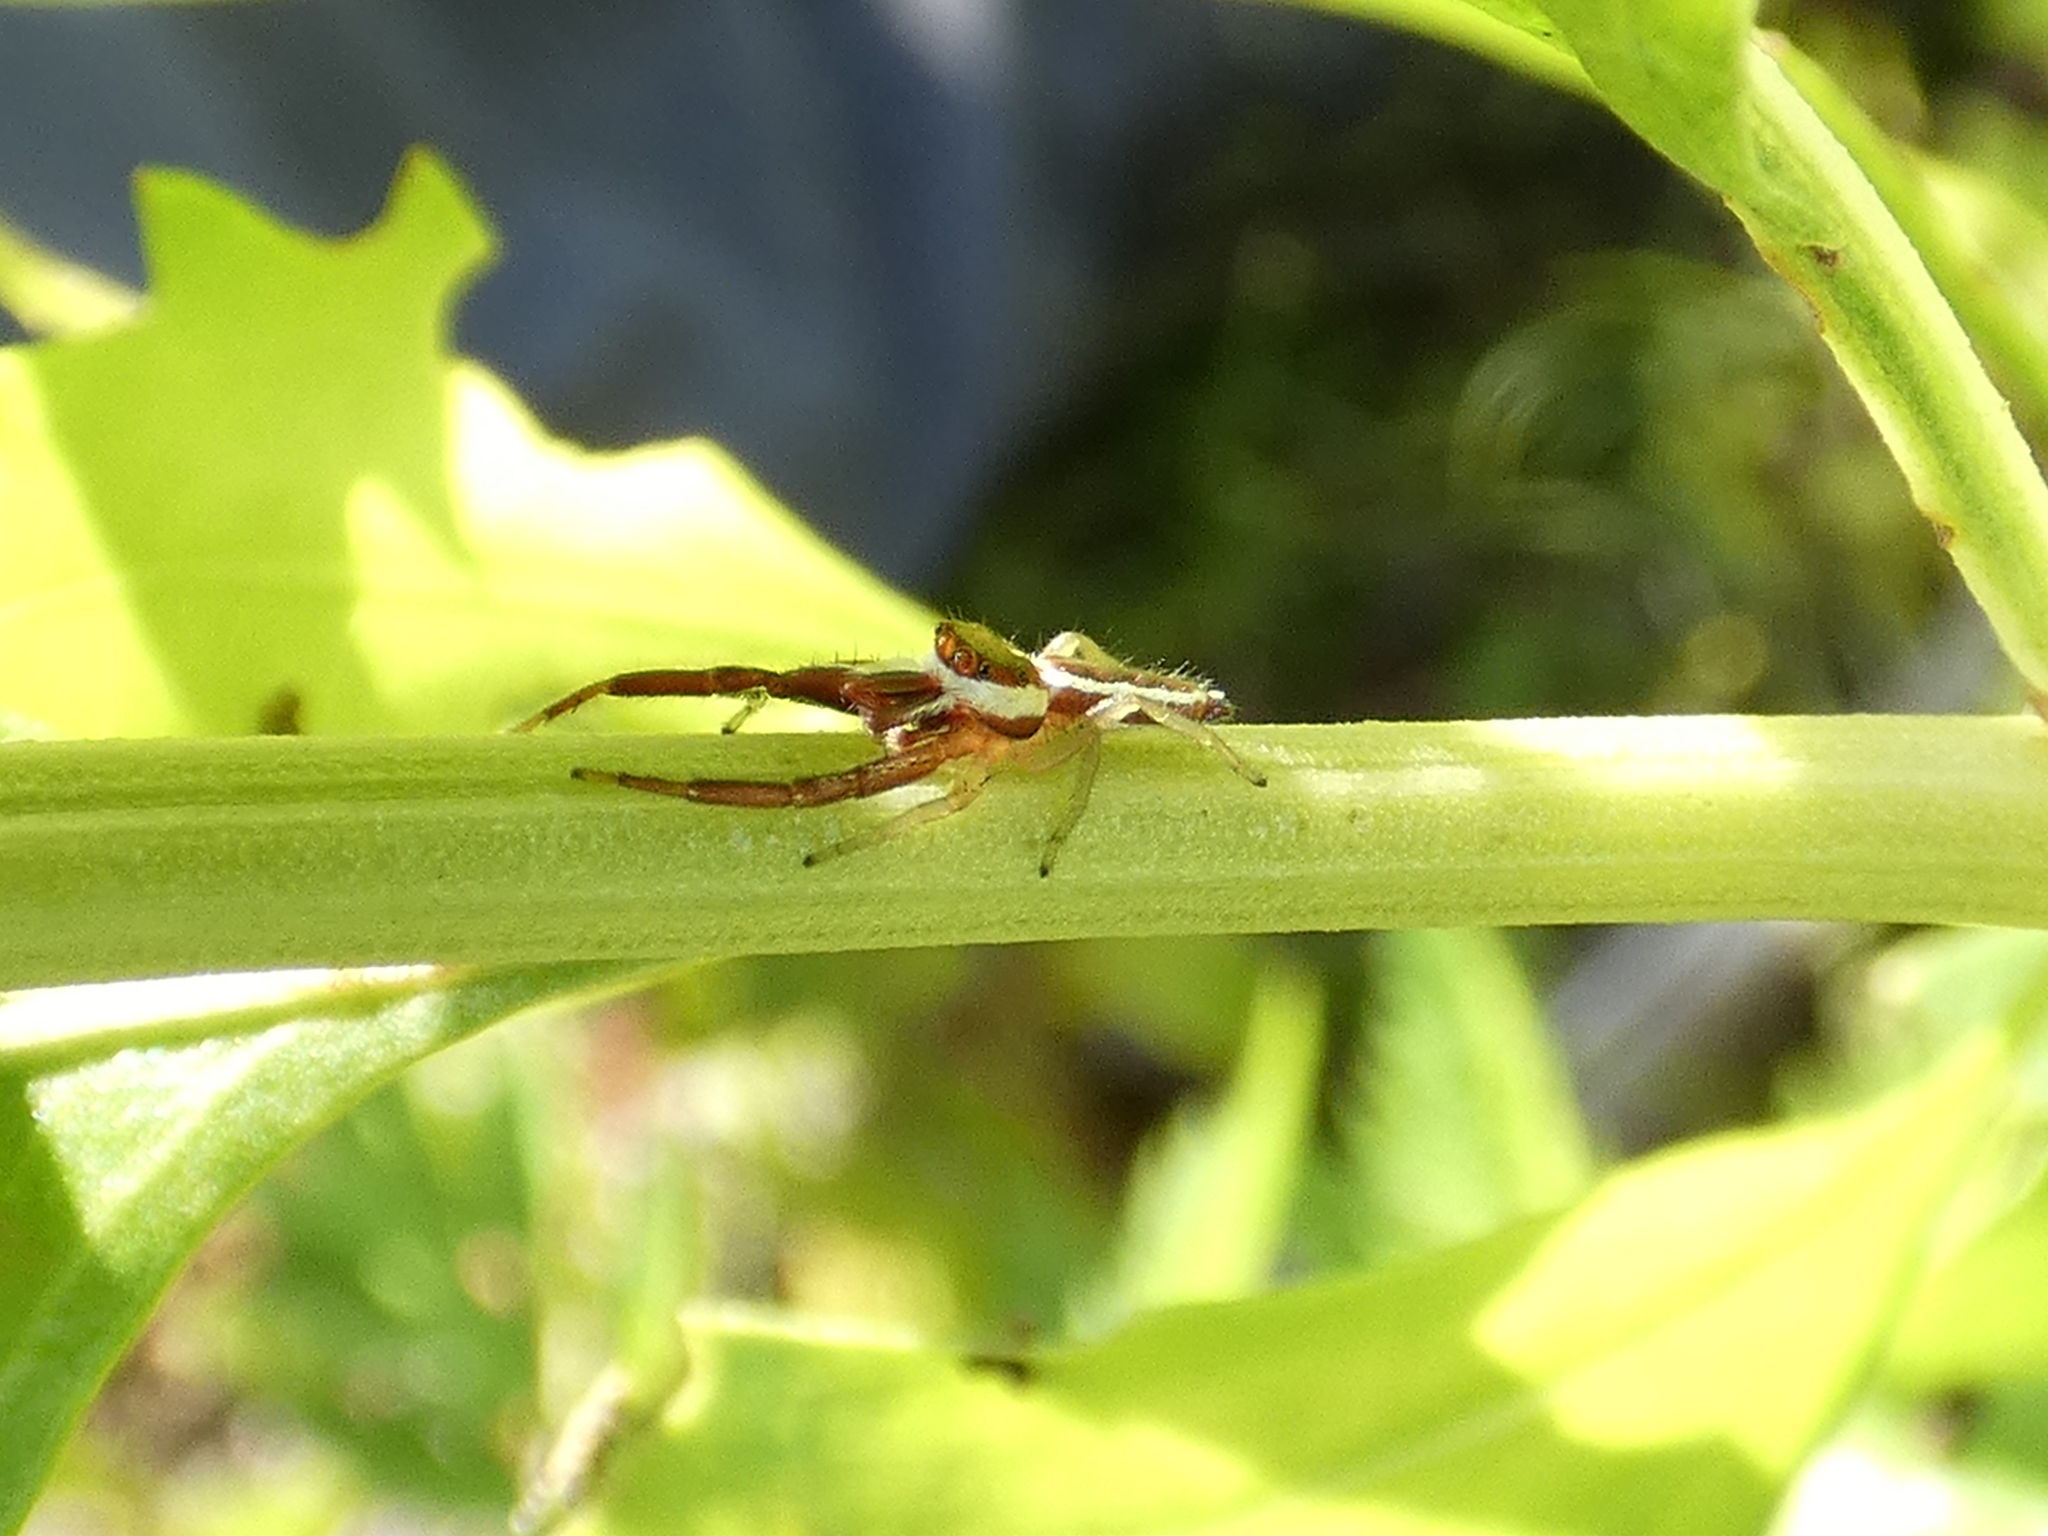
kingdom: Animalia
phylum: Arthropoda
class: Arachnida
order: Araneae
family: Salticidae
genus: Hentzia
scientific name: Hentzia palmarum
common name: Common hentz jumping spider
